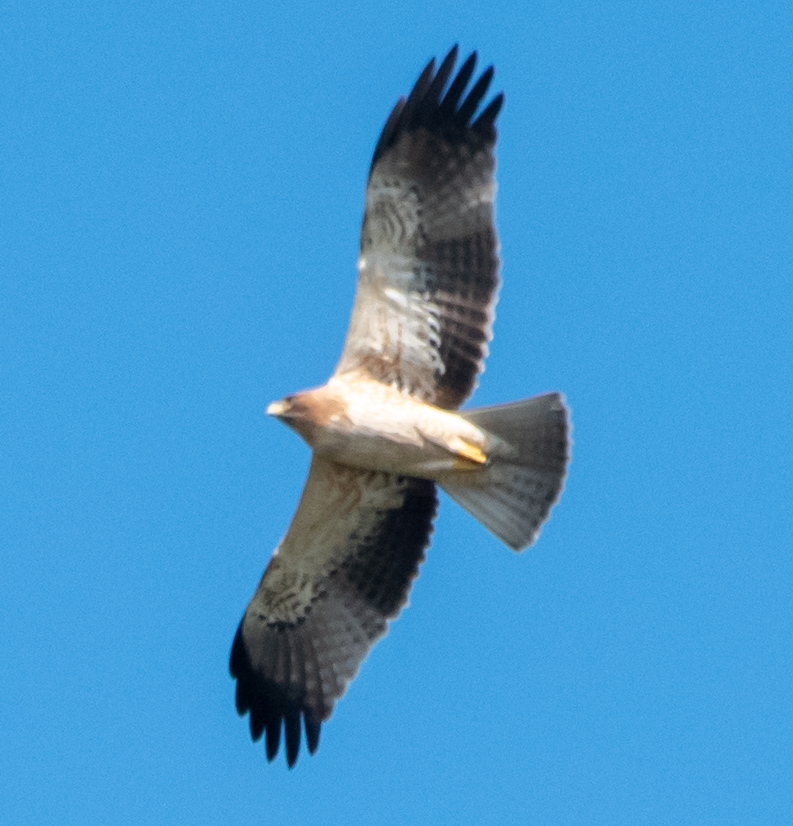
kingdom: Animalia
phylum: Chordata
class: Aves
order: Accipitriformes
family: Accipitridae
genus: Hieraaetus
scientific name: Hieraaetus pennatus
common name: Booted eagle
